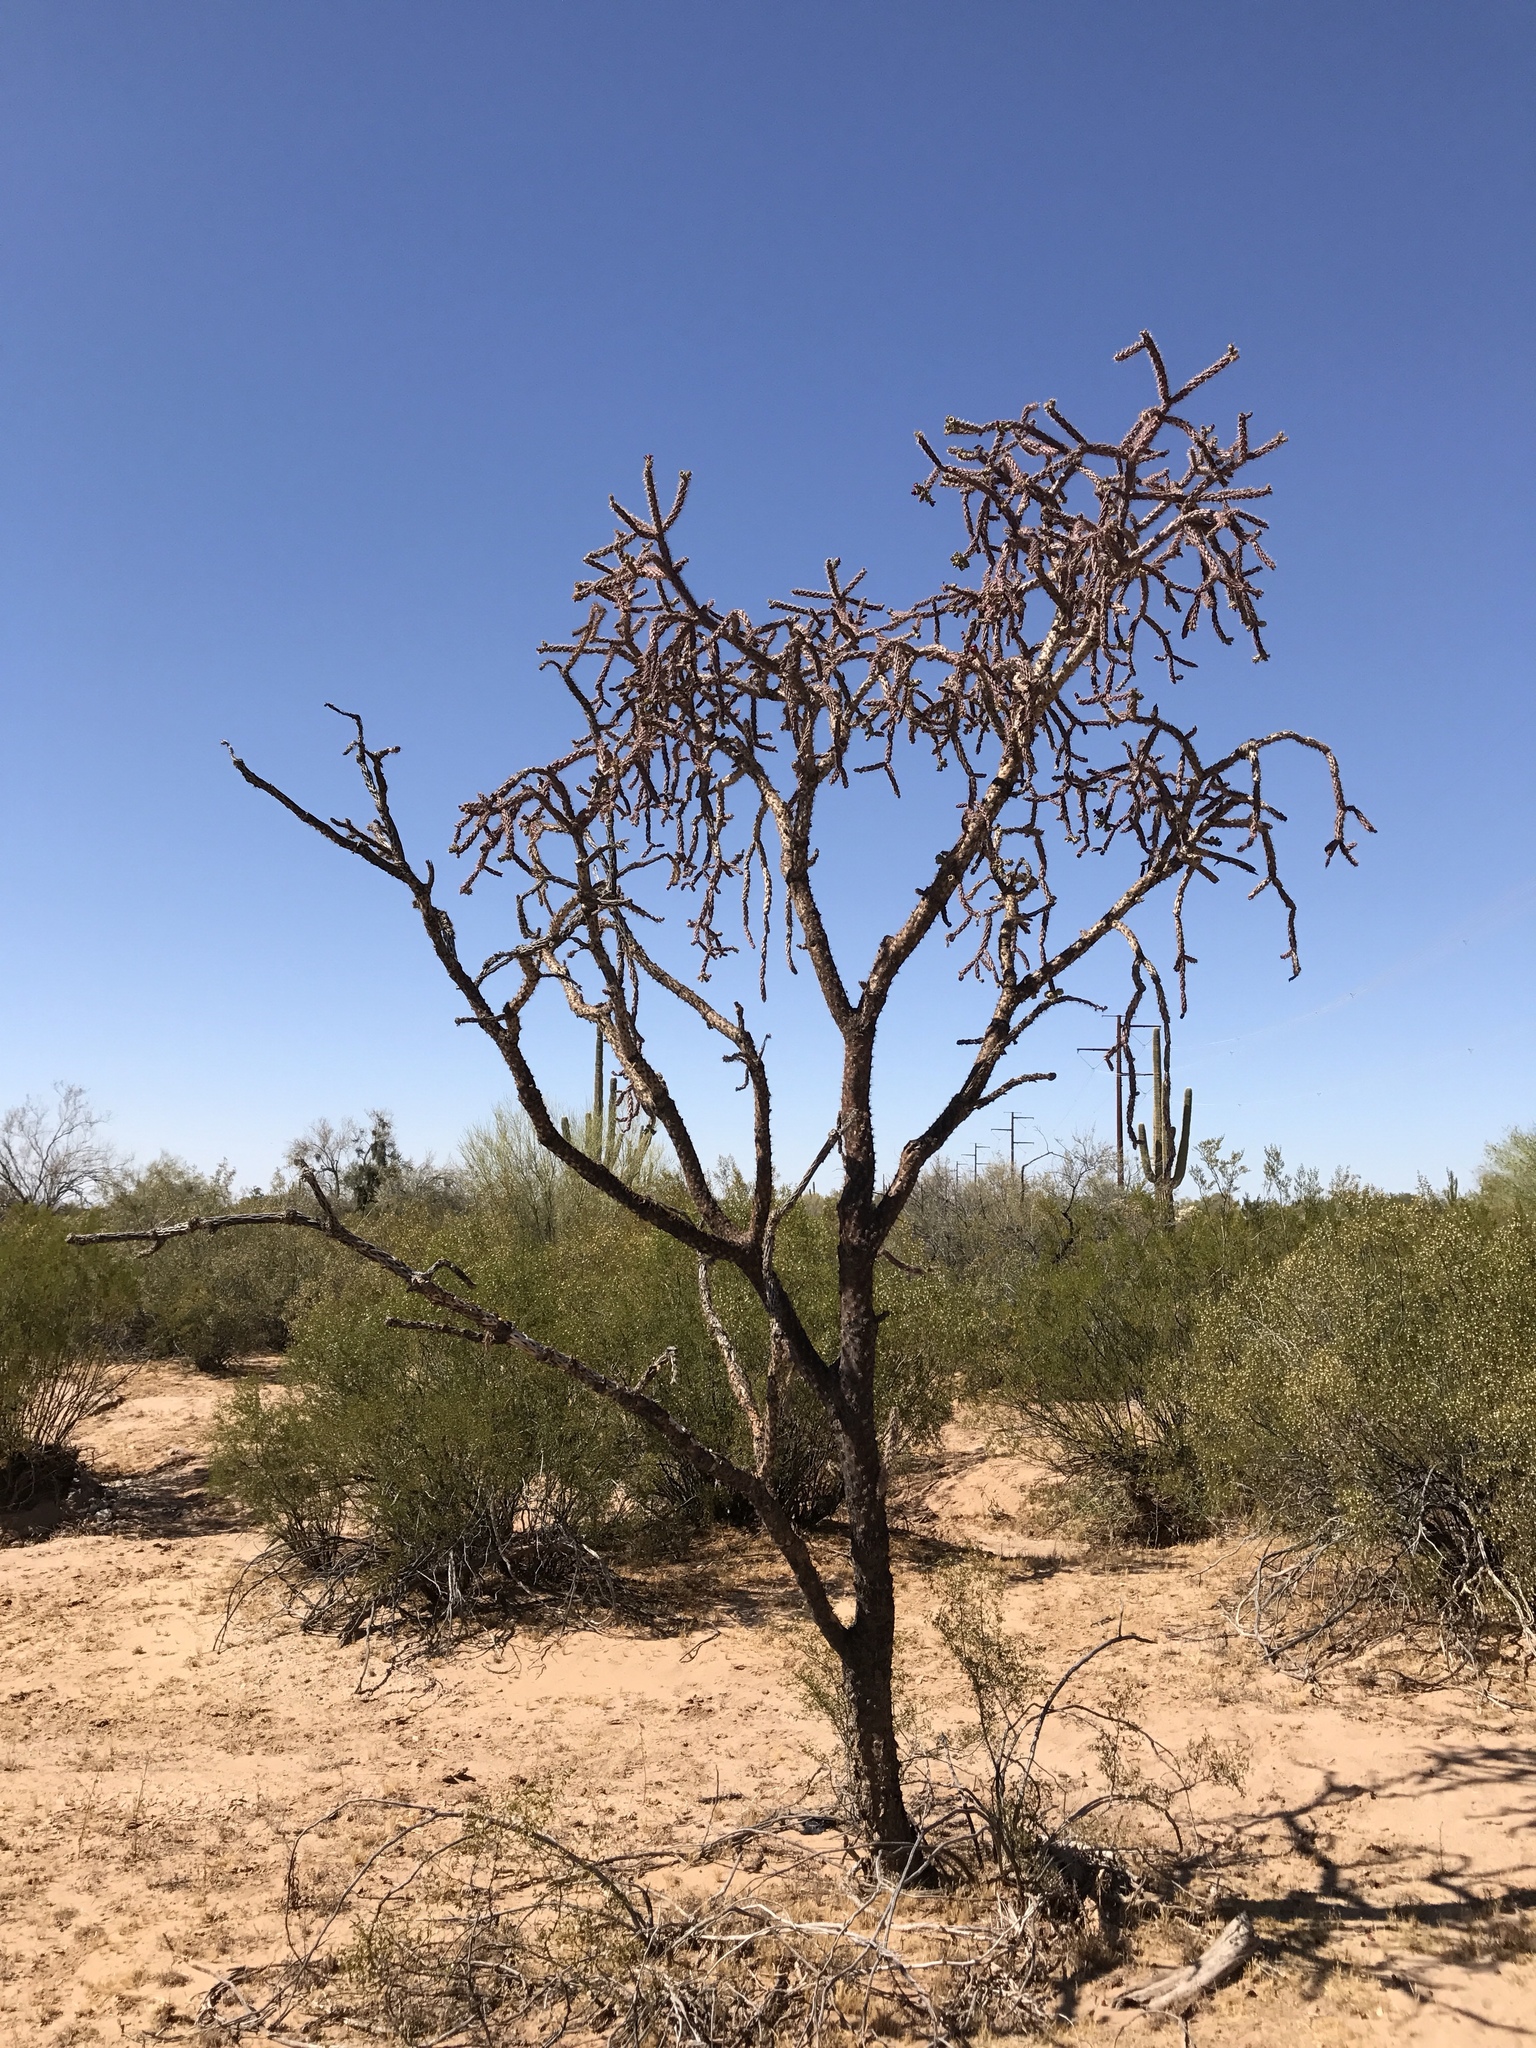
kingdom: Plantae
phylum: Tracheophyta
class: Magnoliopsida
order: Caryophyllales
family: Cactaceae
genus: Cylindropuntia
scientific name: Cylindropuntia thurberi
